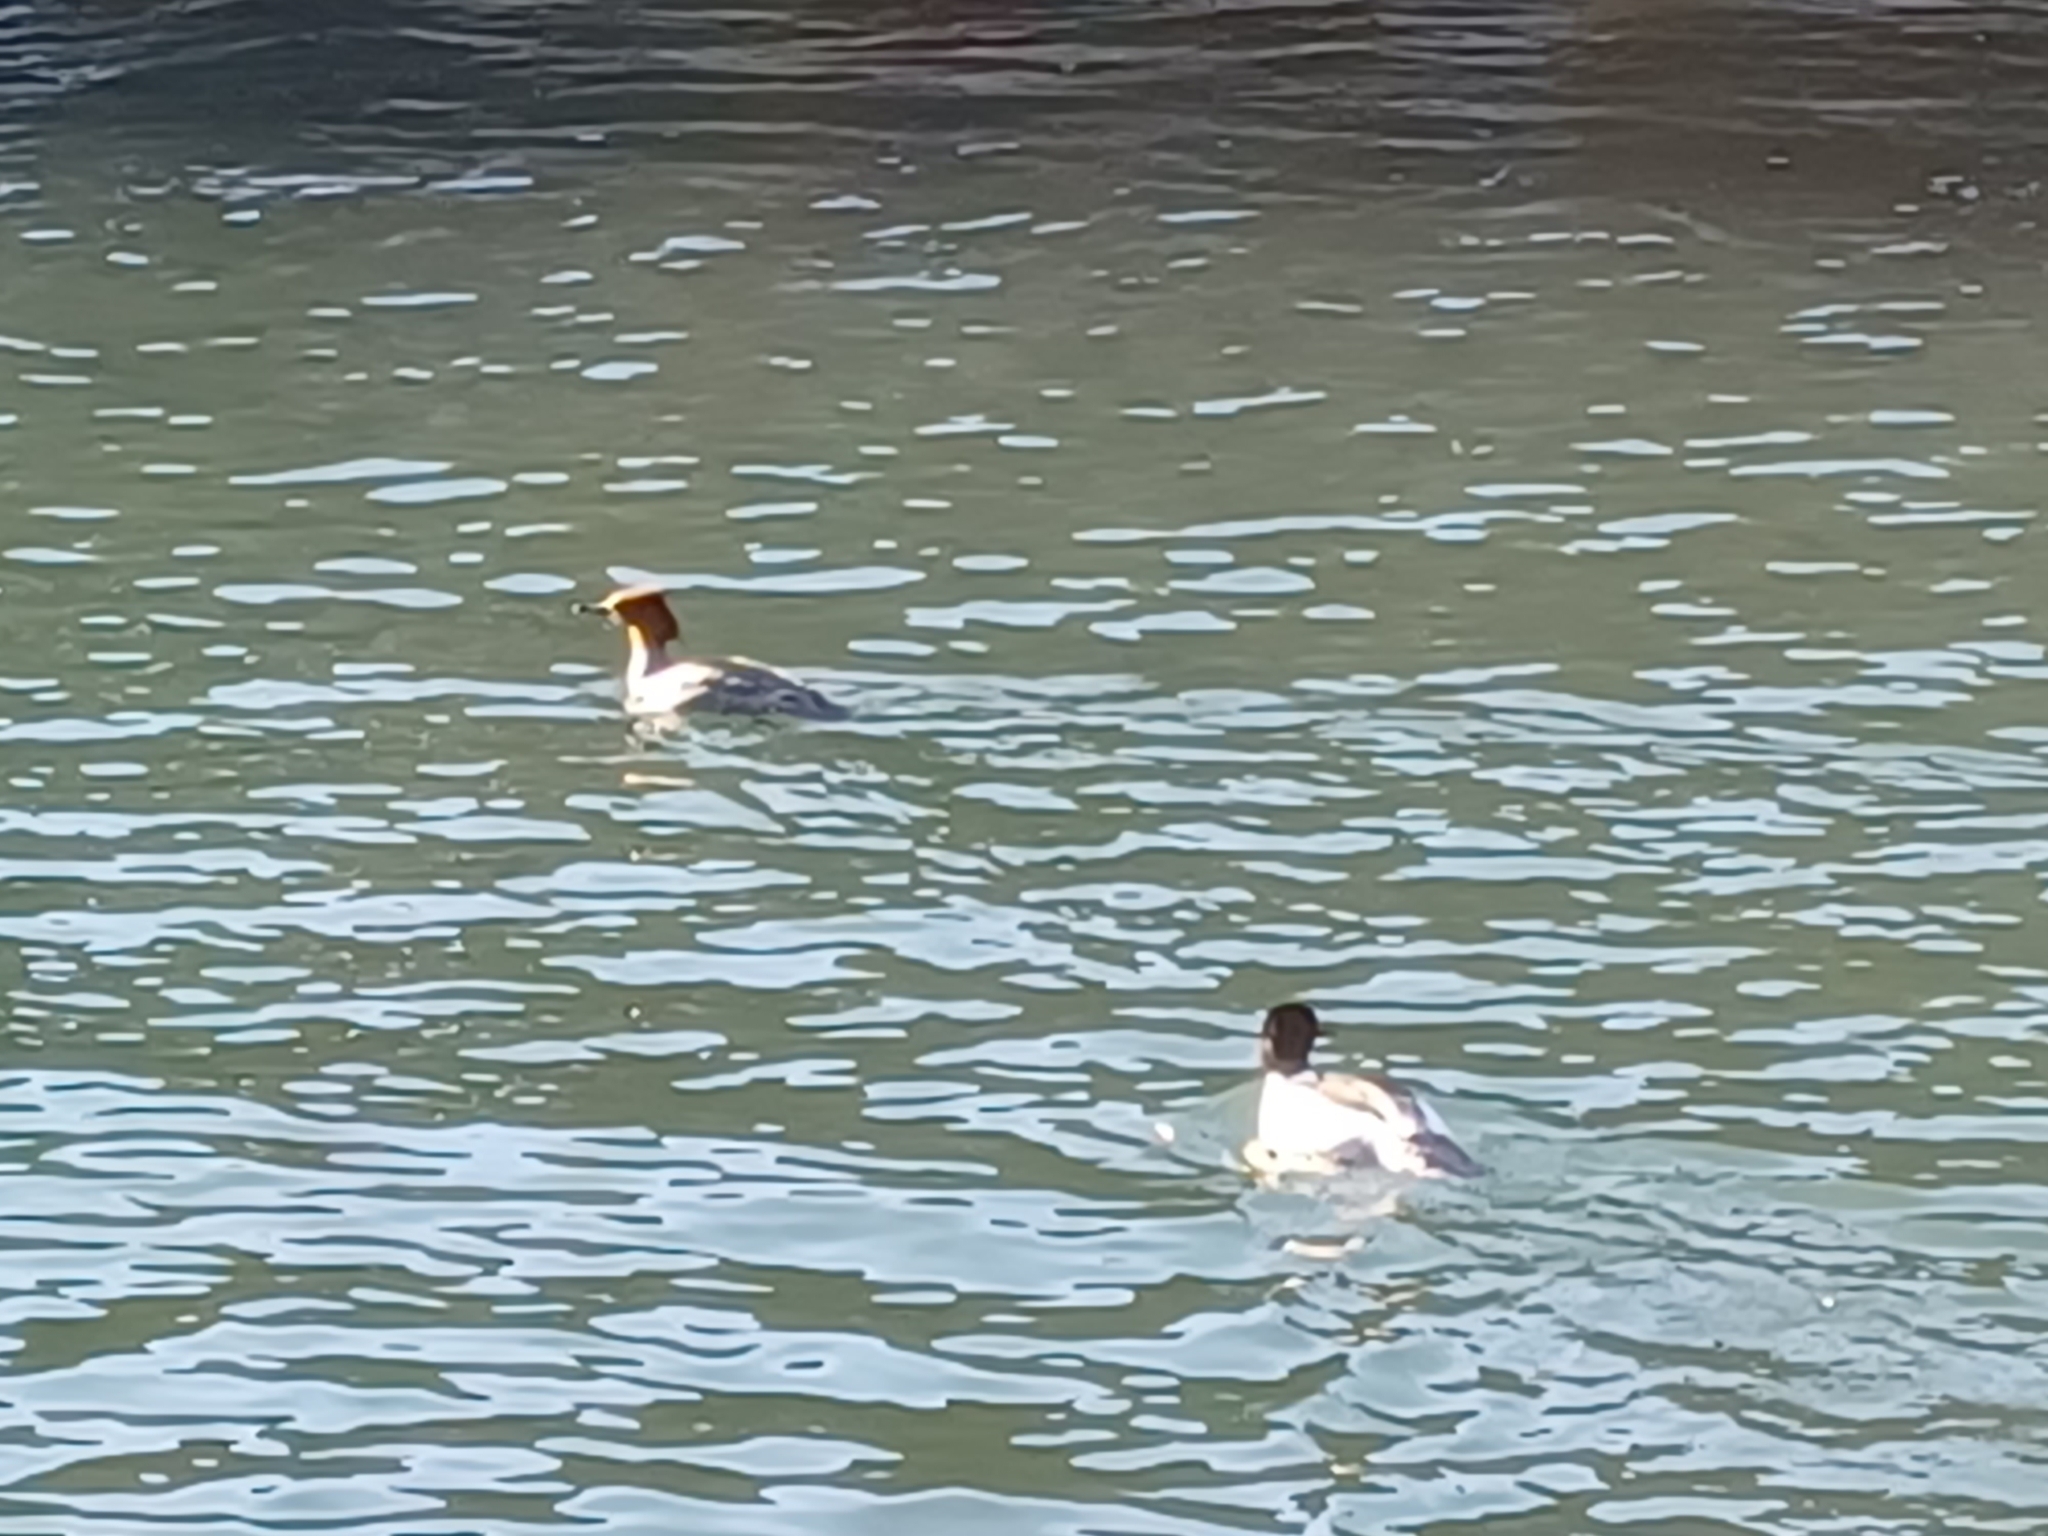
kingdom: Animalia
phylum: Chordata
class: Aves
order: Anseriformes
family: Anatidae
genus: Mergus
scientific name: Mergus merganser
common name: Common merganser
